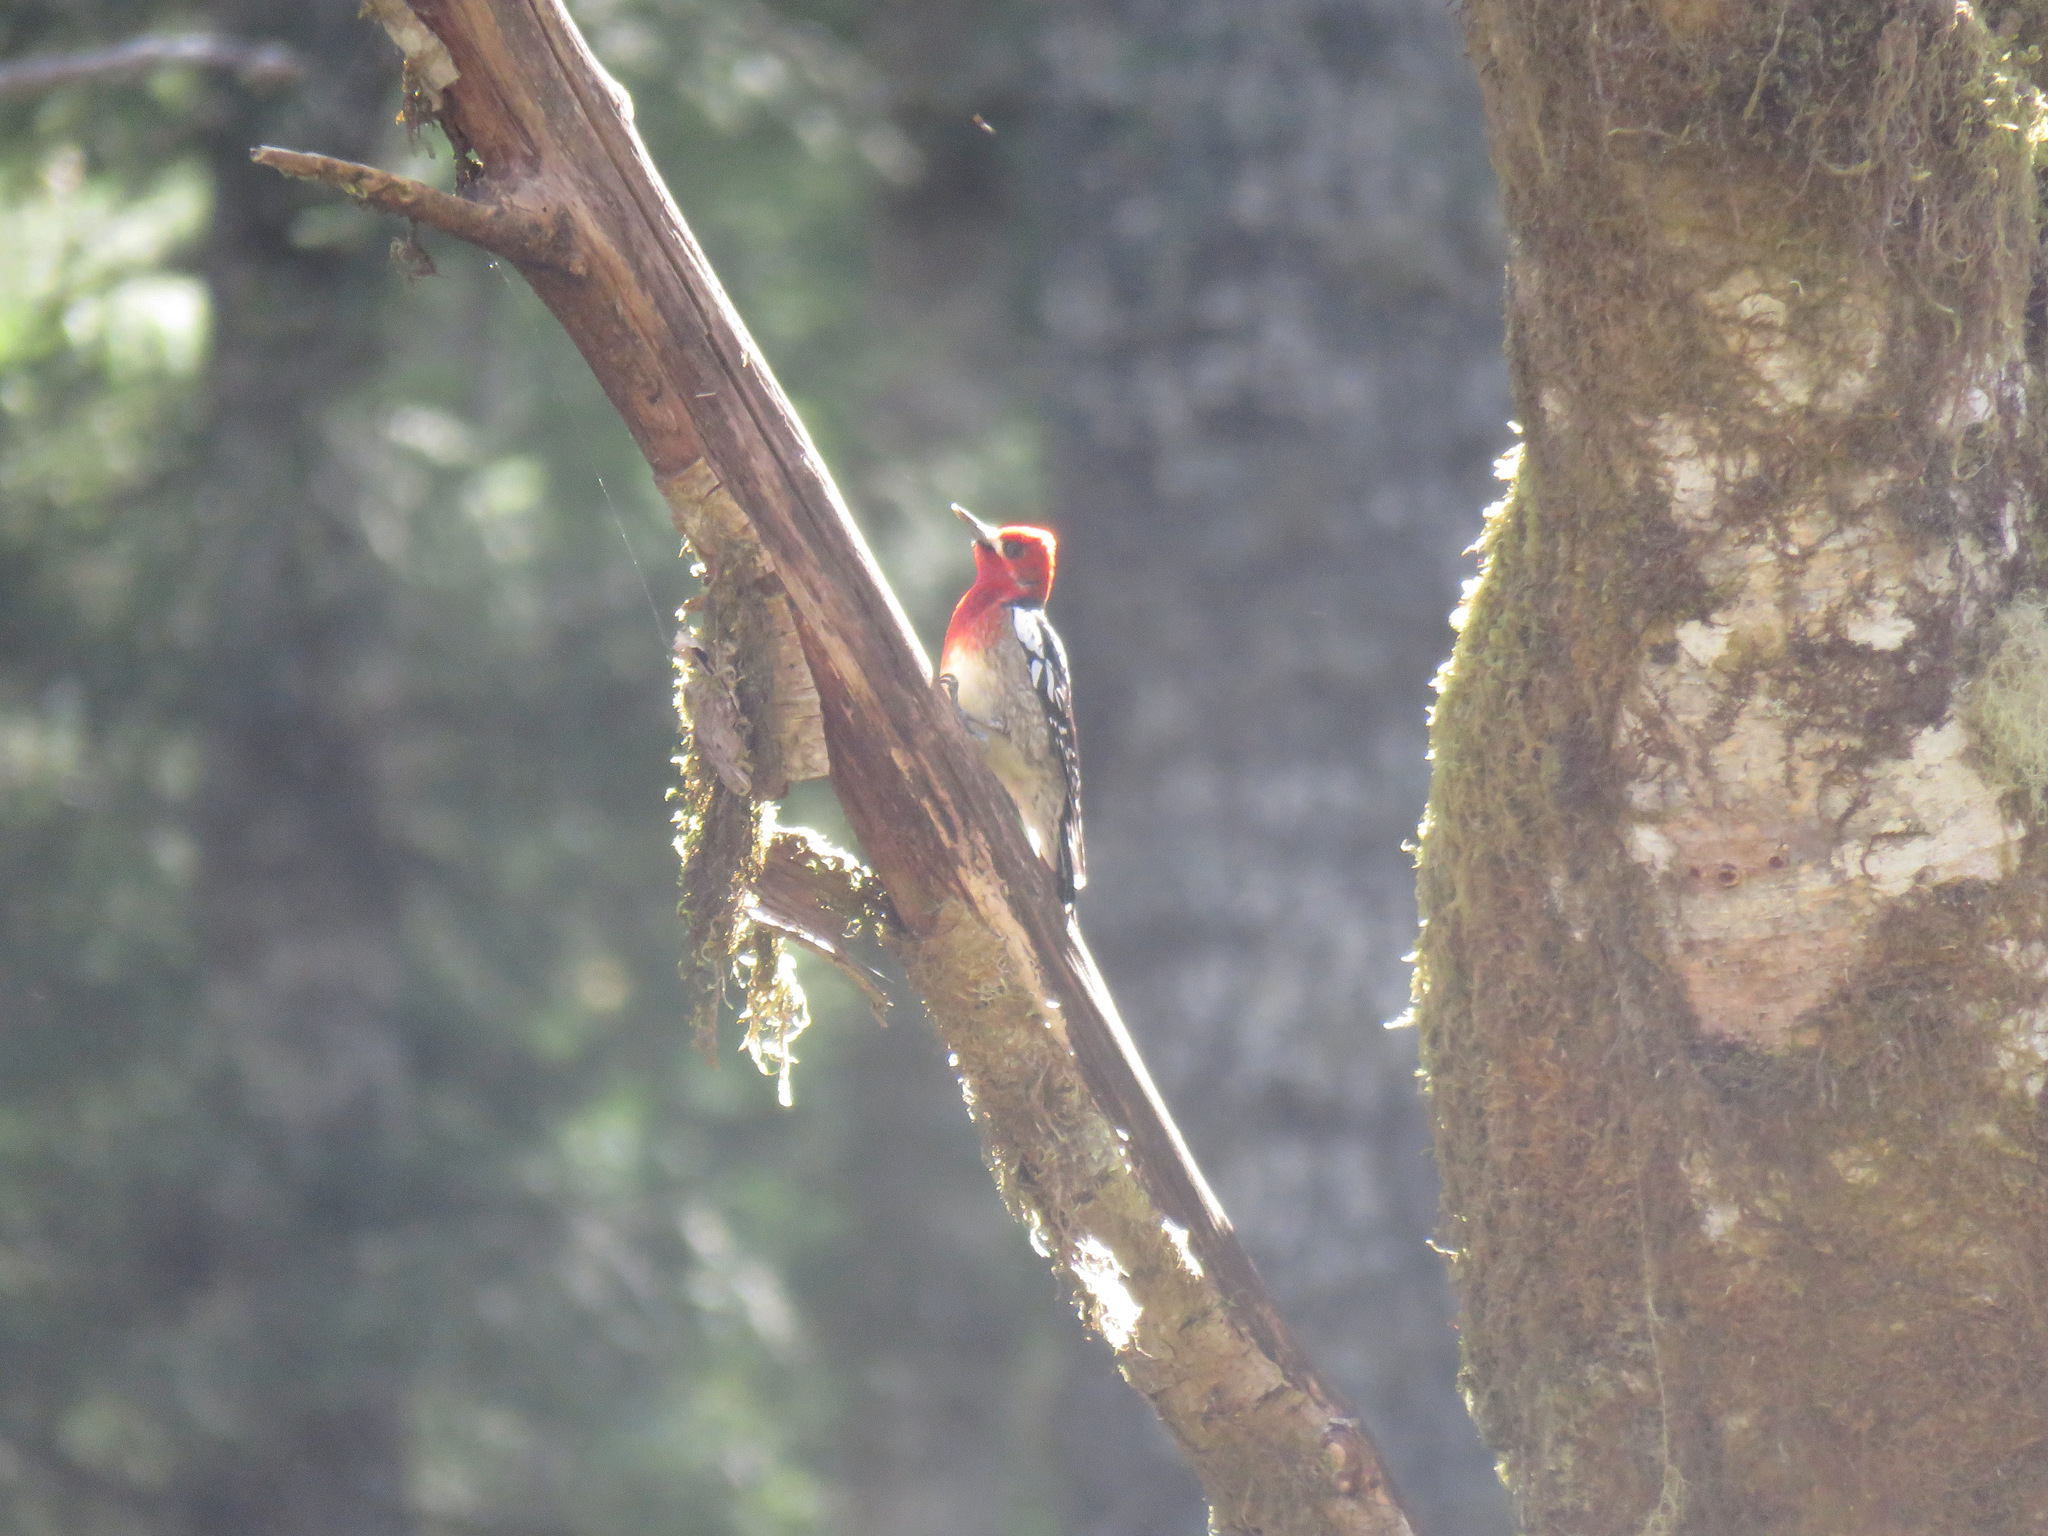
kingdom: Animalia
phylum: Chordata
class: Aves
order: Piciformes
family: Picidae
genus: Sphyrapicus
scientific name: Sphyrapicus ruber
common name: Red-breasted sapsucker
